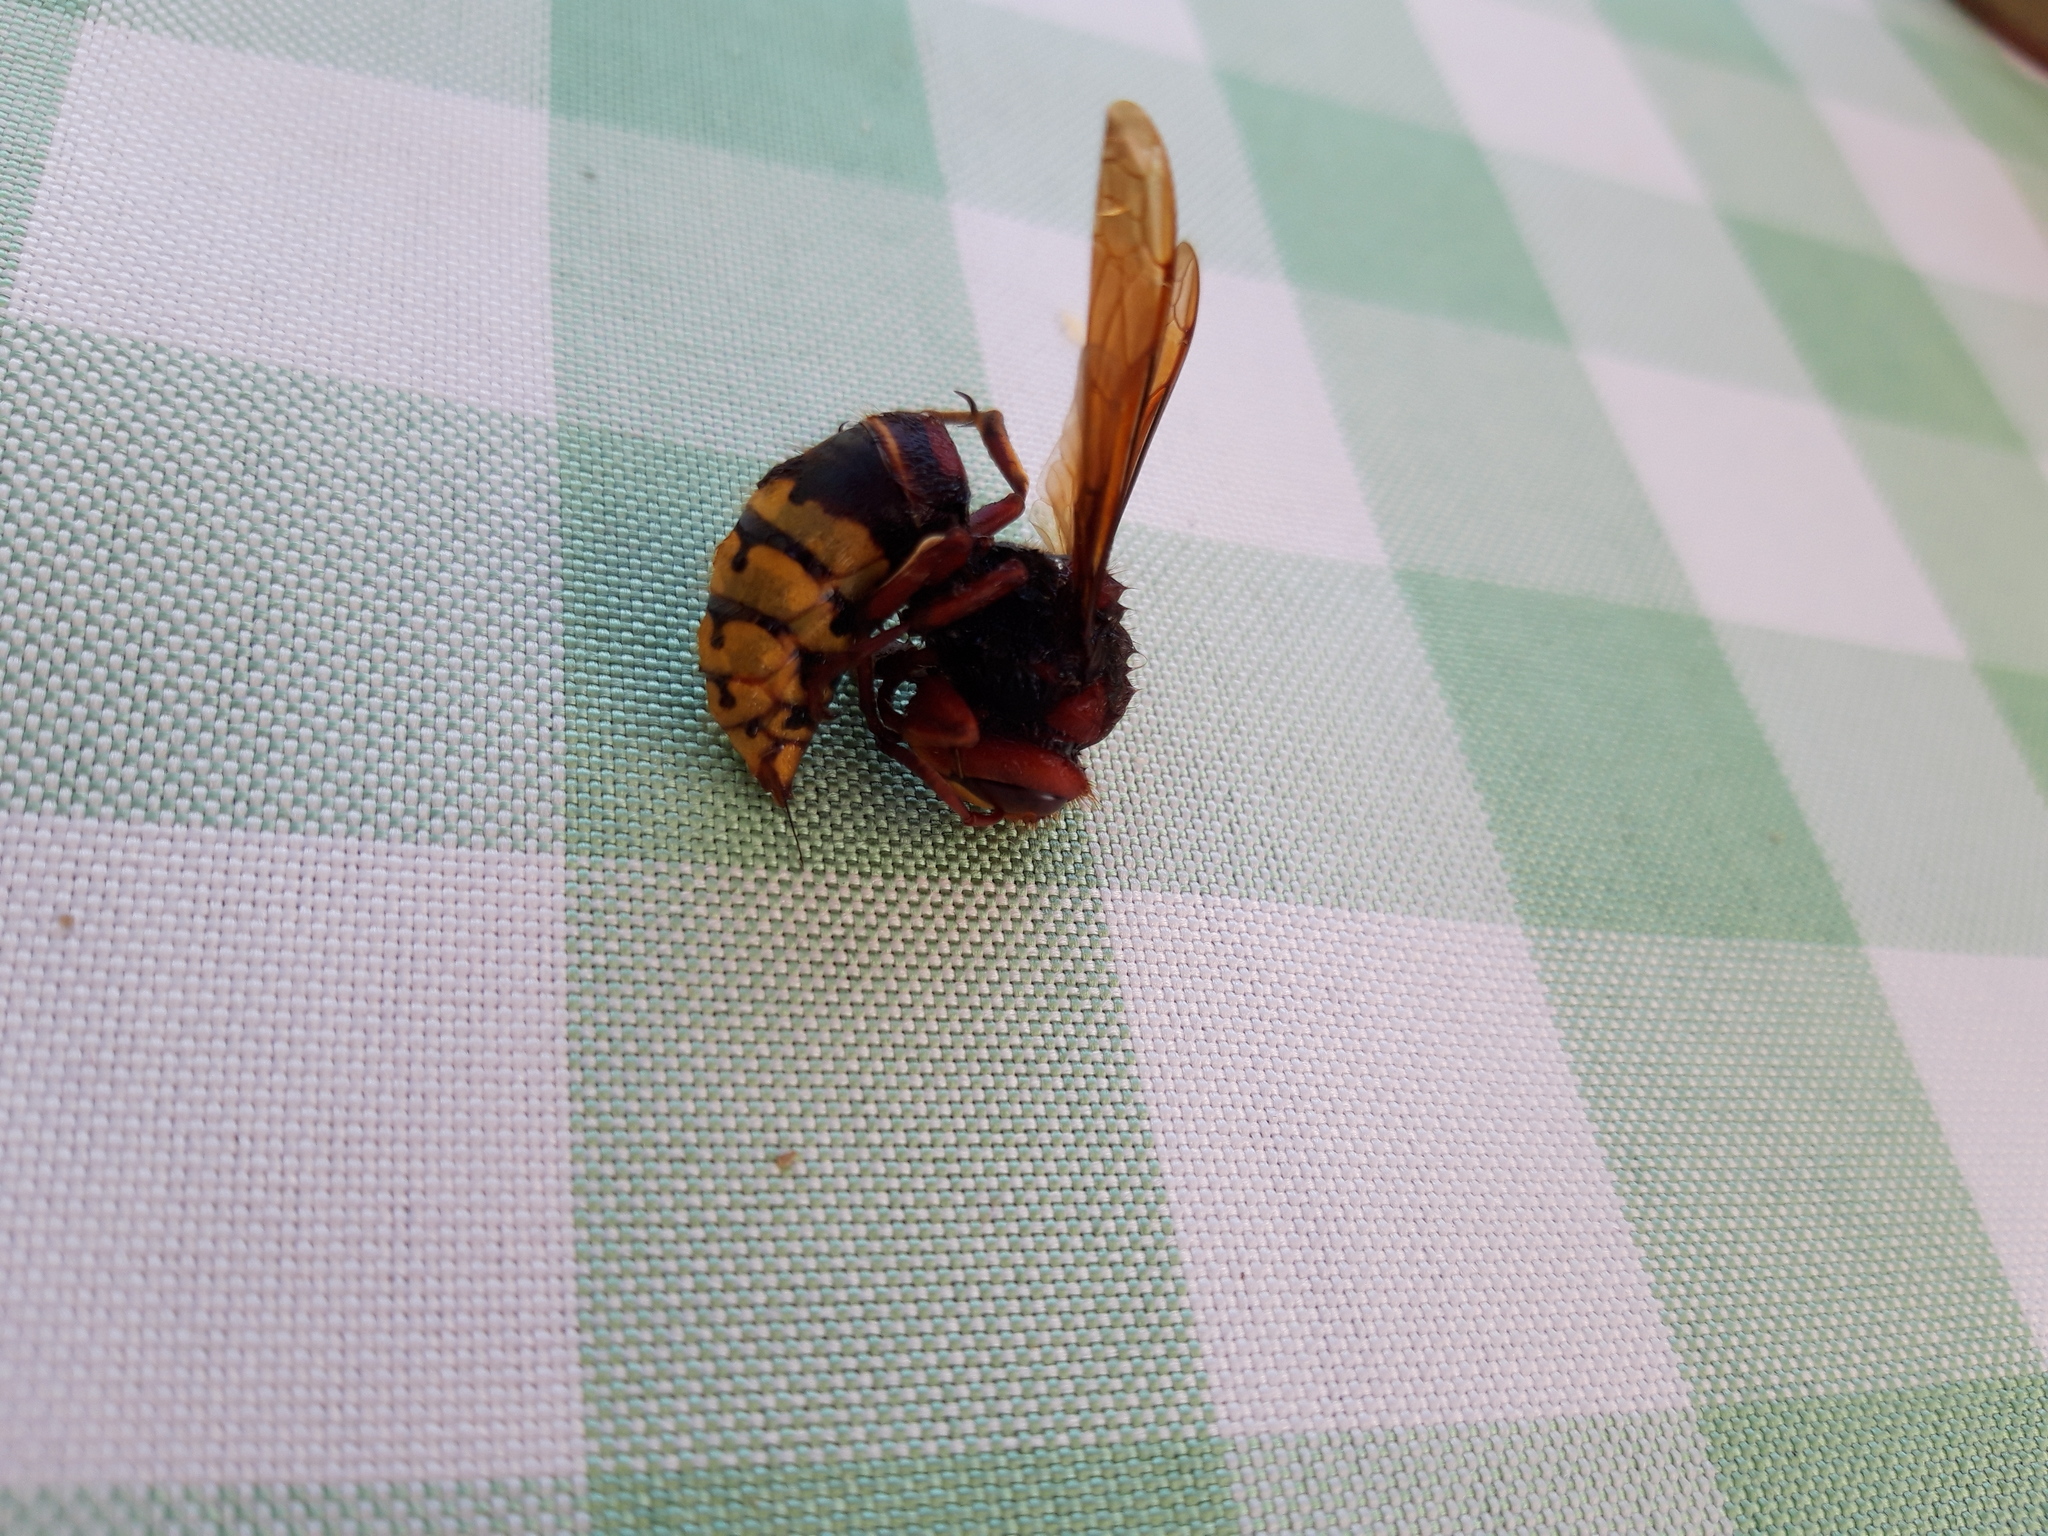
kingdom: Animalia
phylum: Arthropoda
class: Insecta
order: Hymenoptera
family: Vespidae
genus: Vespa
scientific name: Vespa crabro
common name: Hornet
